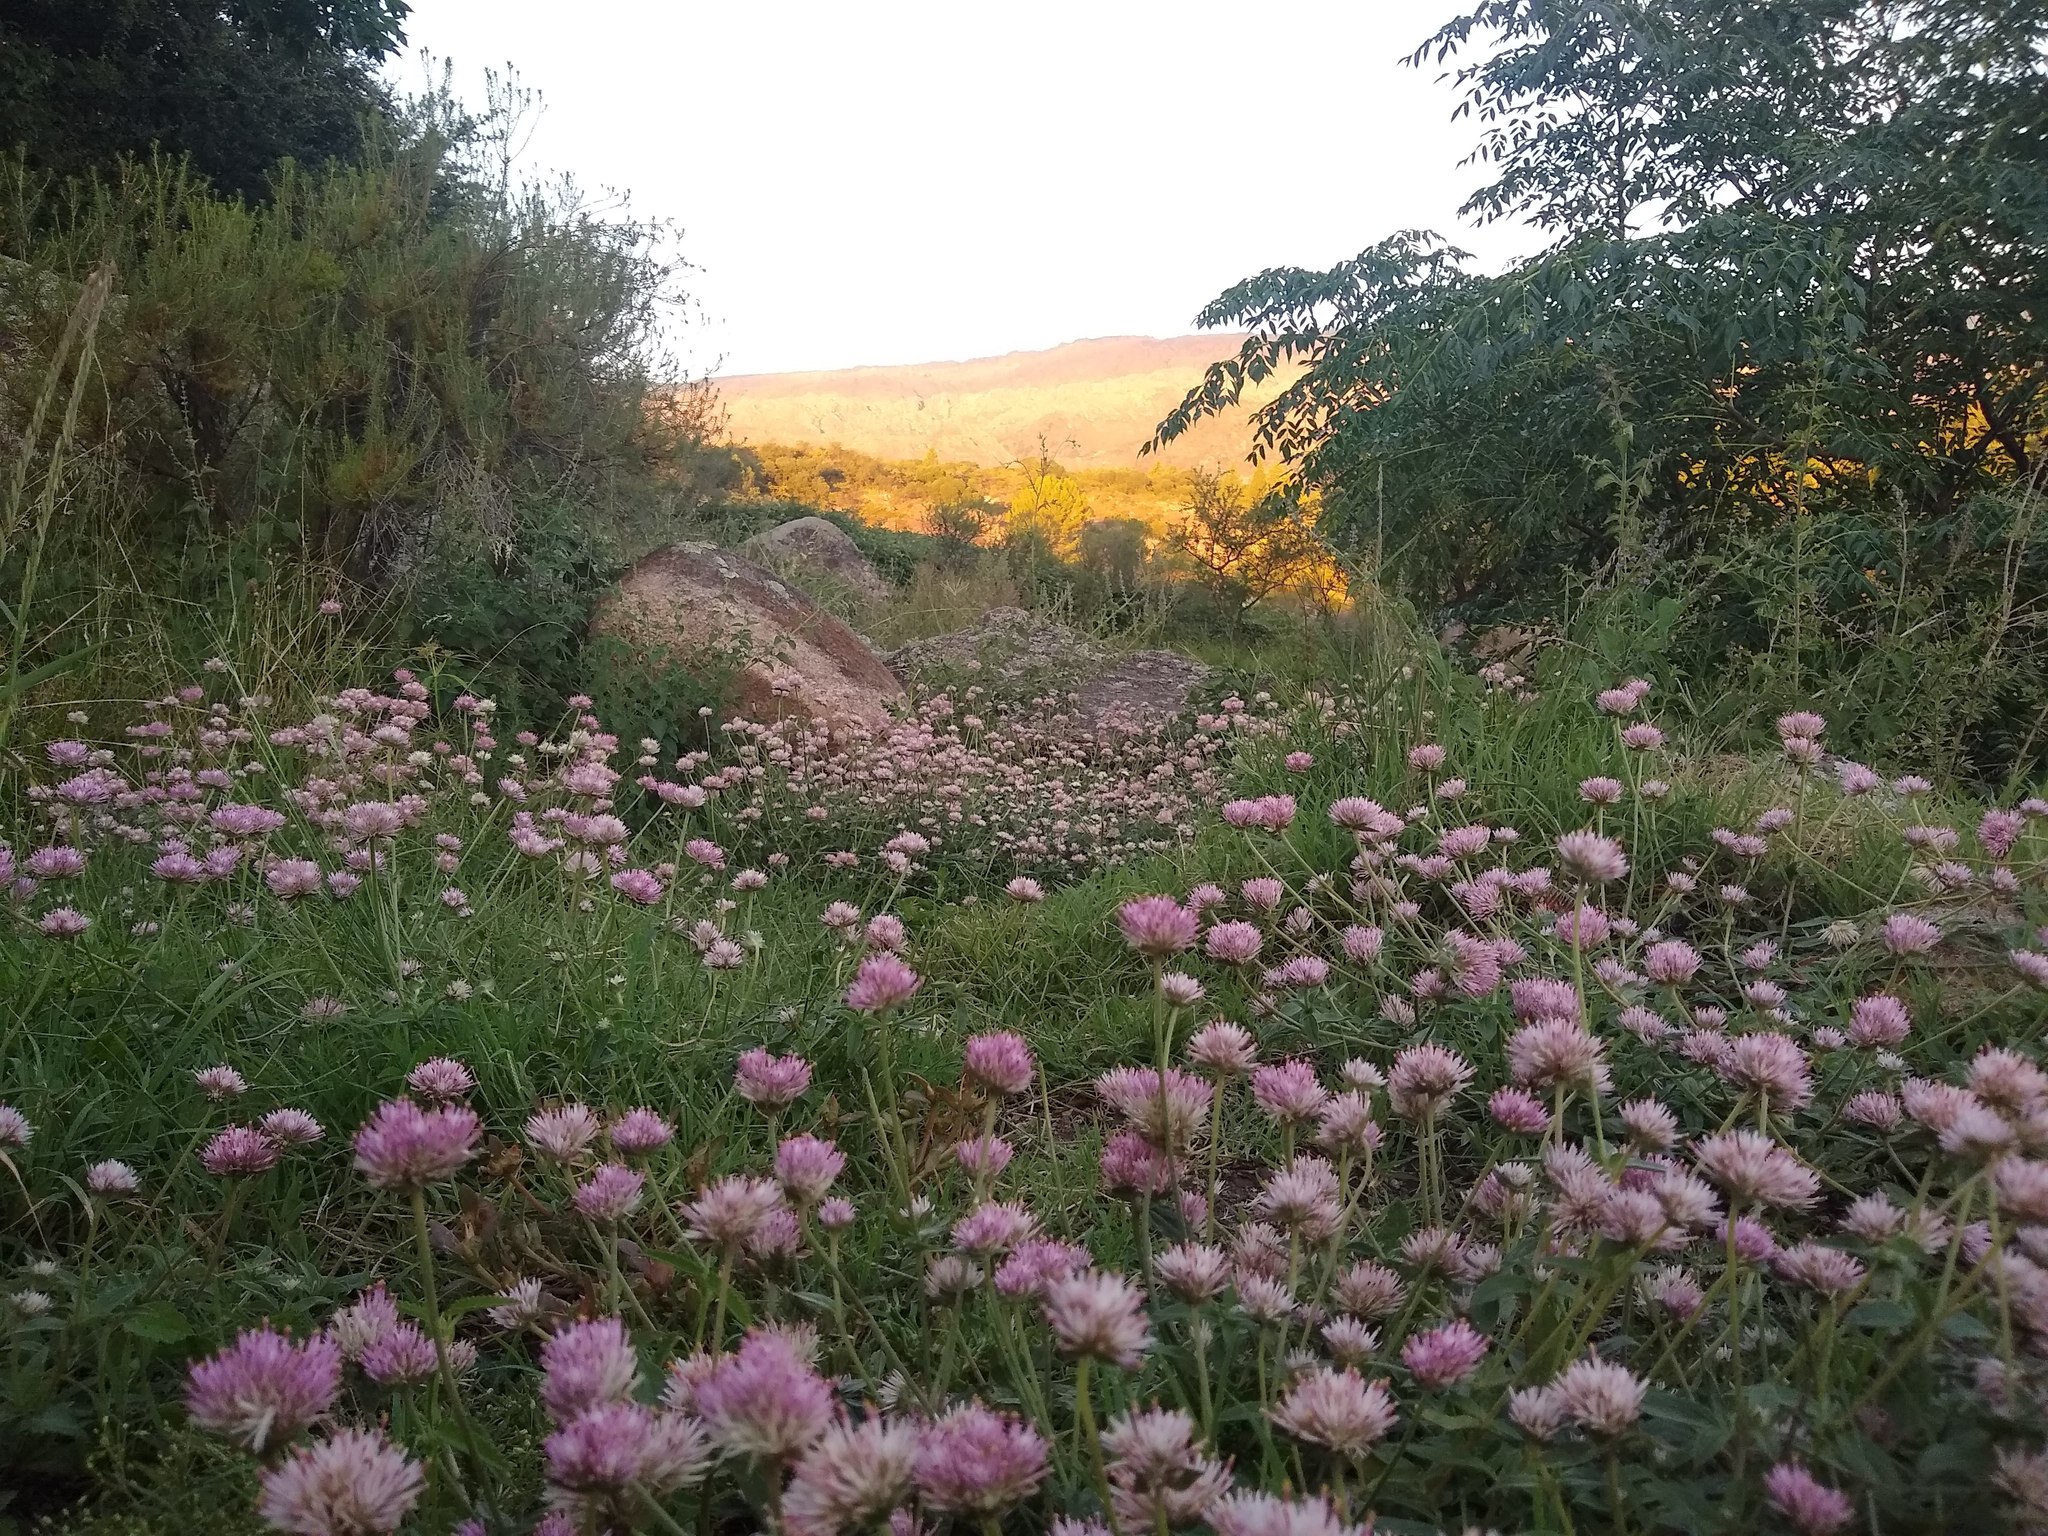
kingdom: Plantae
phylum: Tracheophyta
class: Magnoliopsida
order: Caryophyllales
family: Amaranthaceae
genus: Gomphrena
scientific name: Gomphrena pulchella
